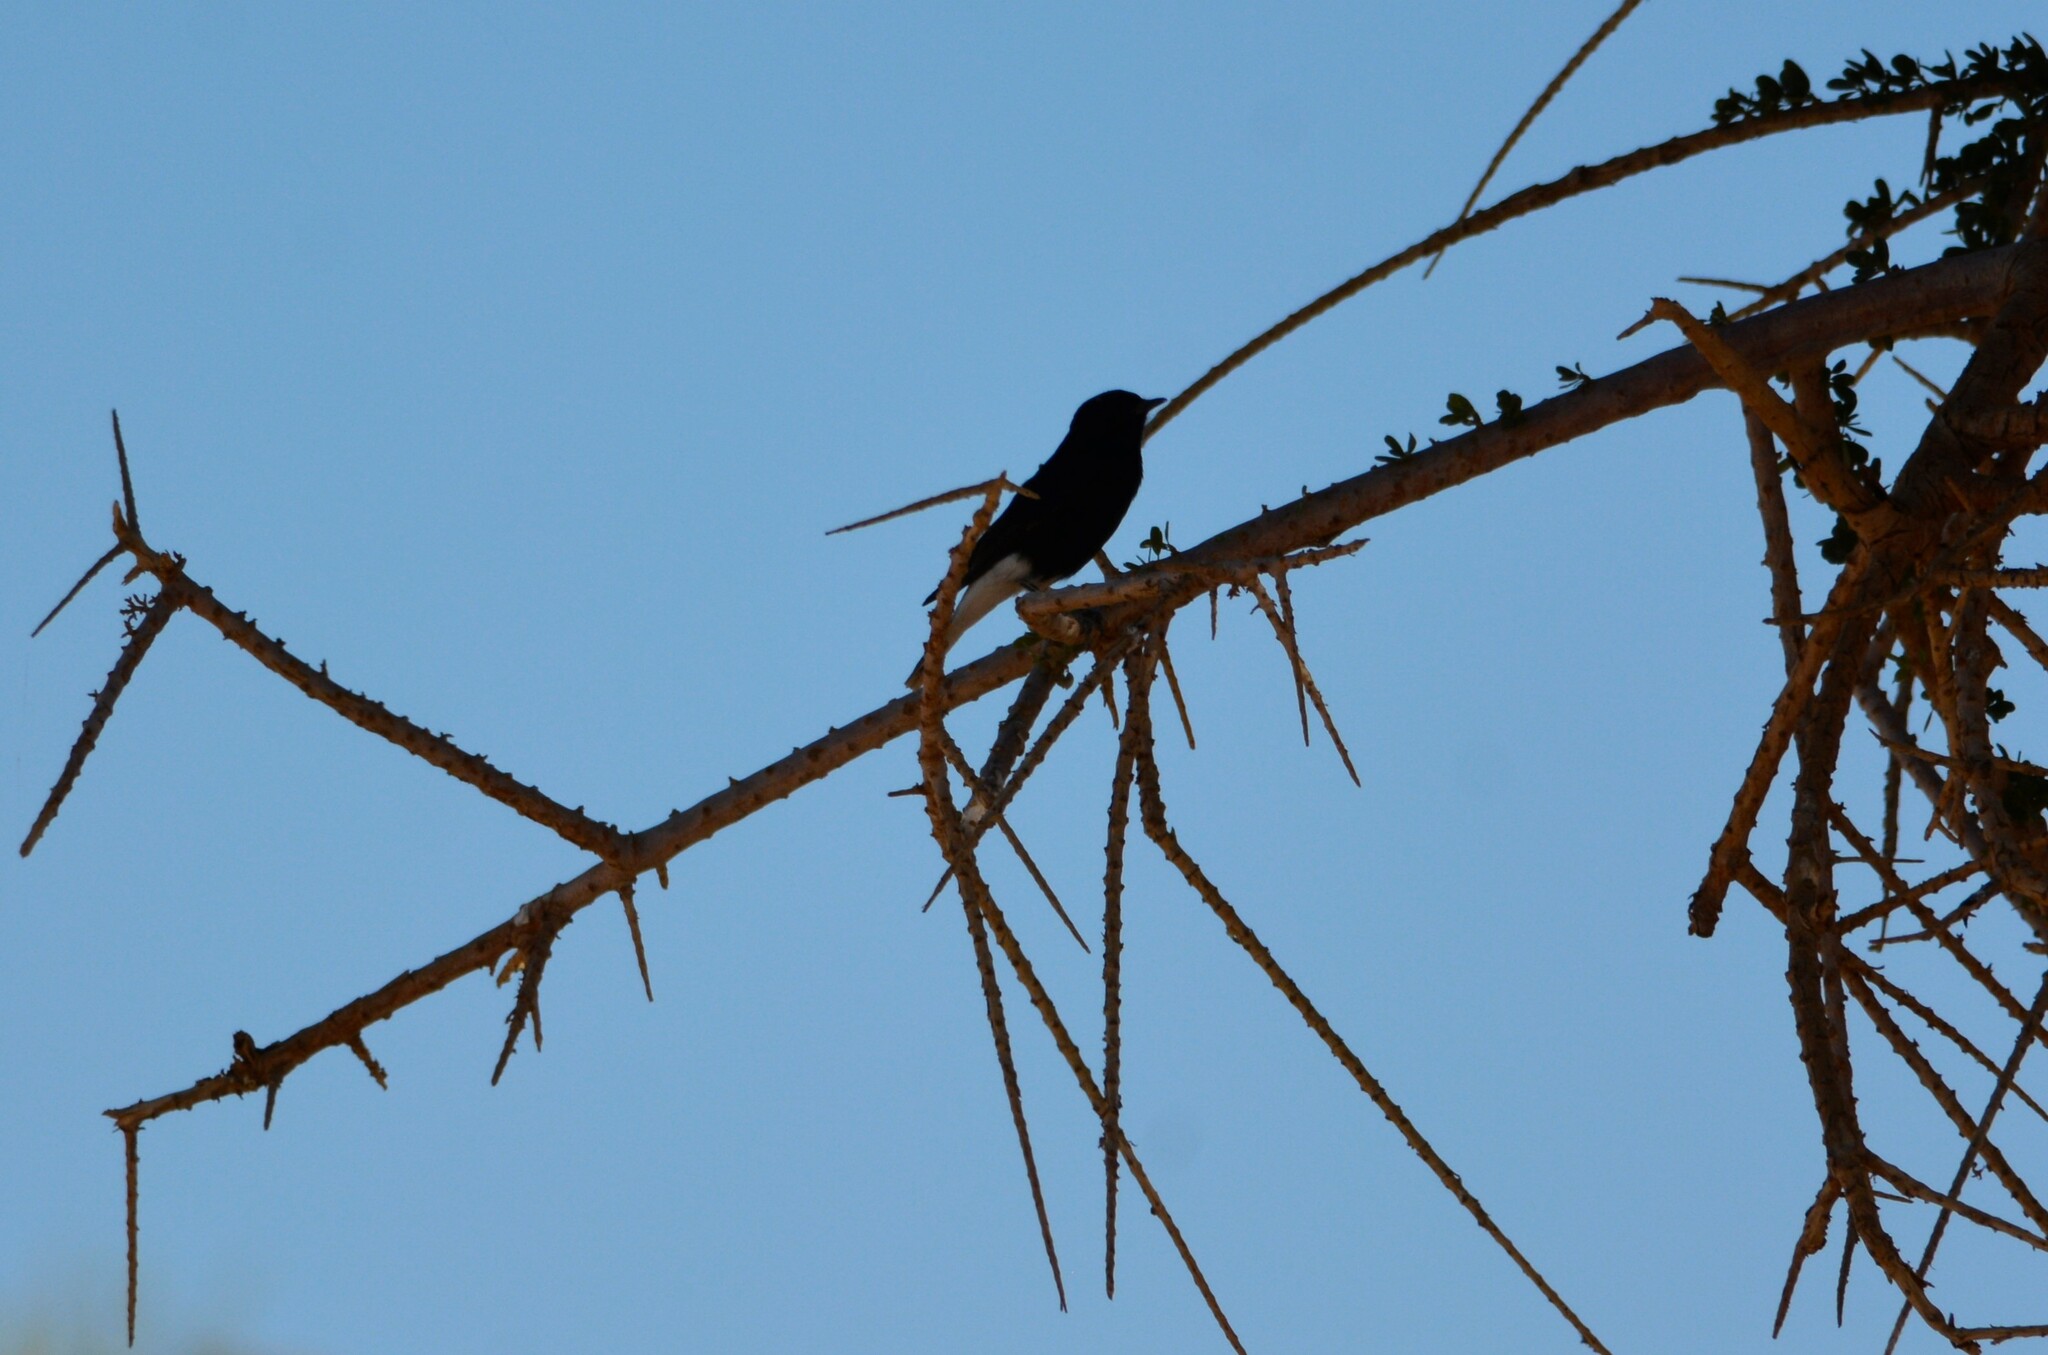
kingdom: Animalia
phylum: Chordata
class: Aves
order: Passeriformes
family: Muscicapidae
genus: Oenanthe
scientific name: Oenanthe leucopyga
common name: White-crowned wheatear
